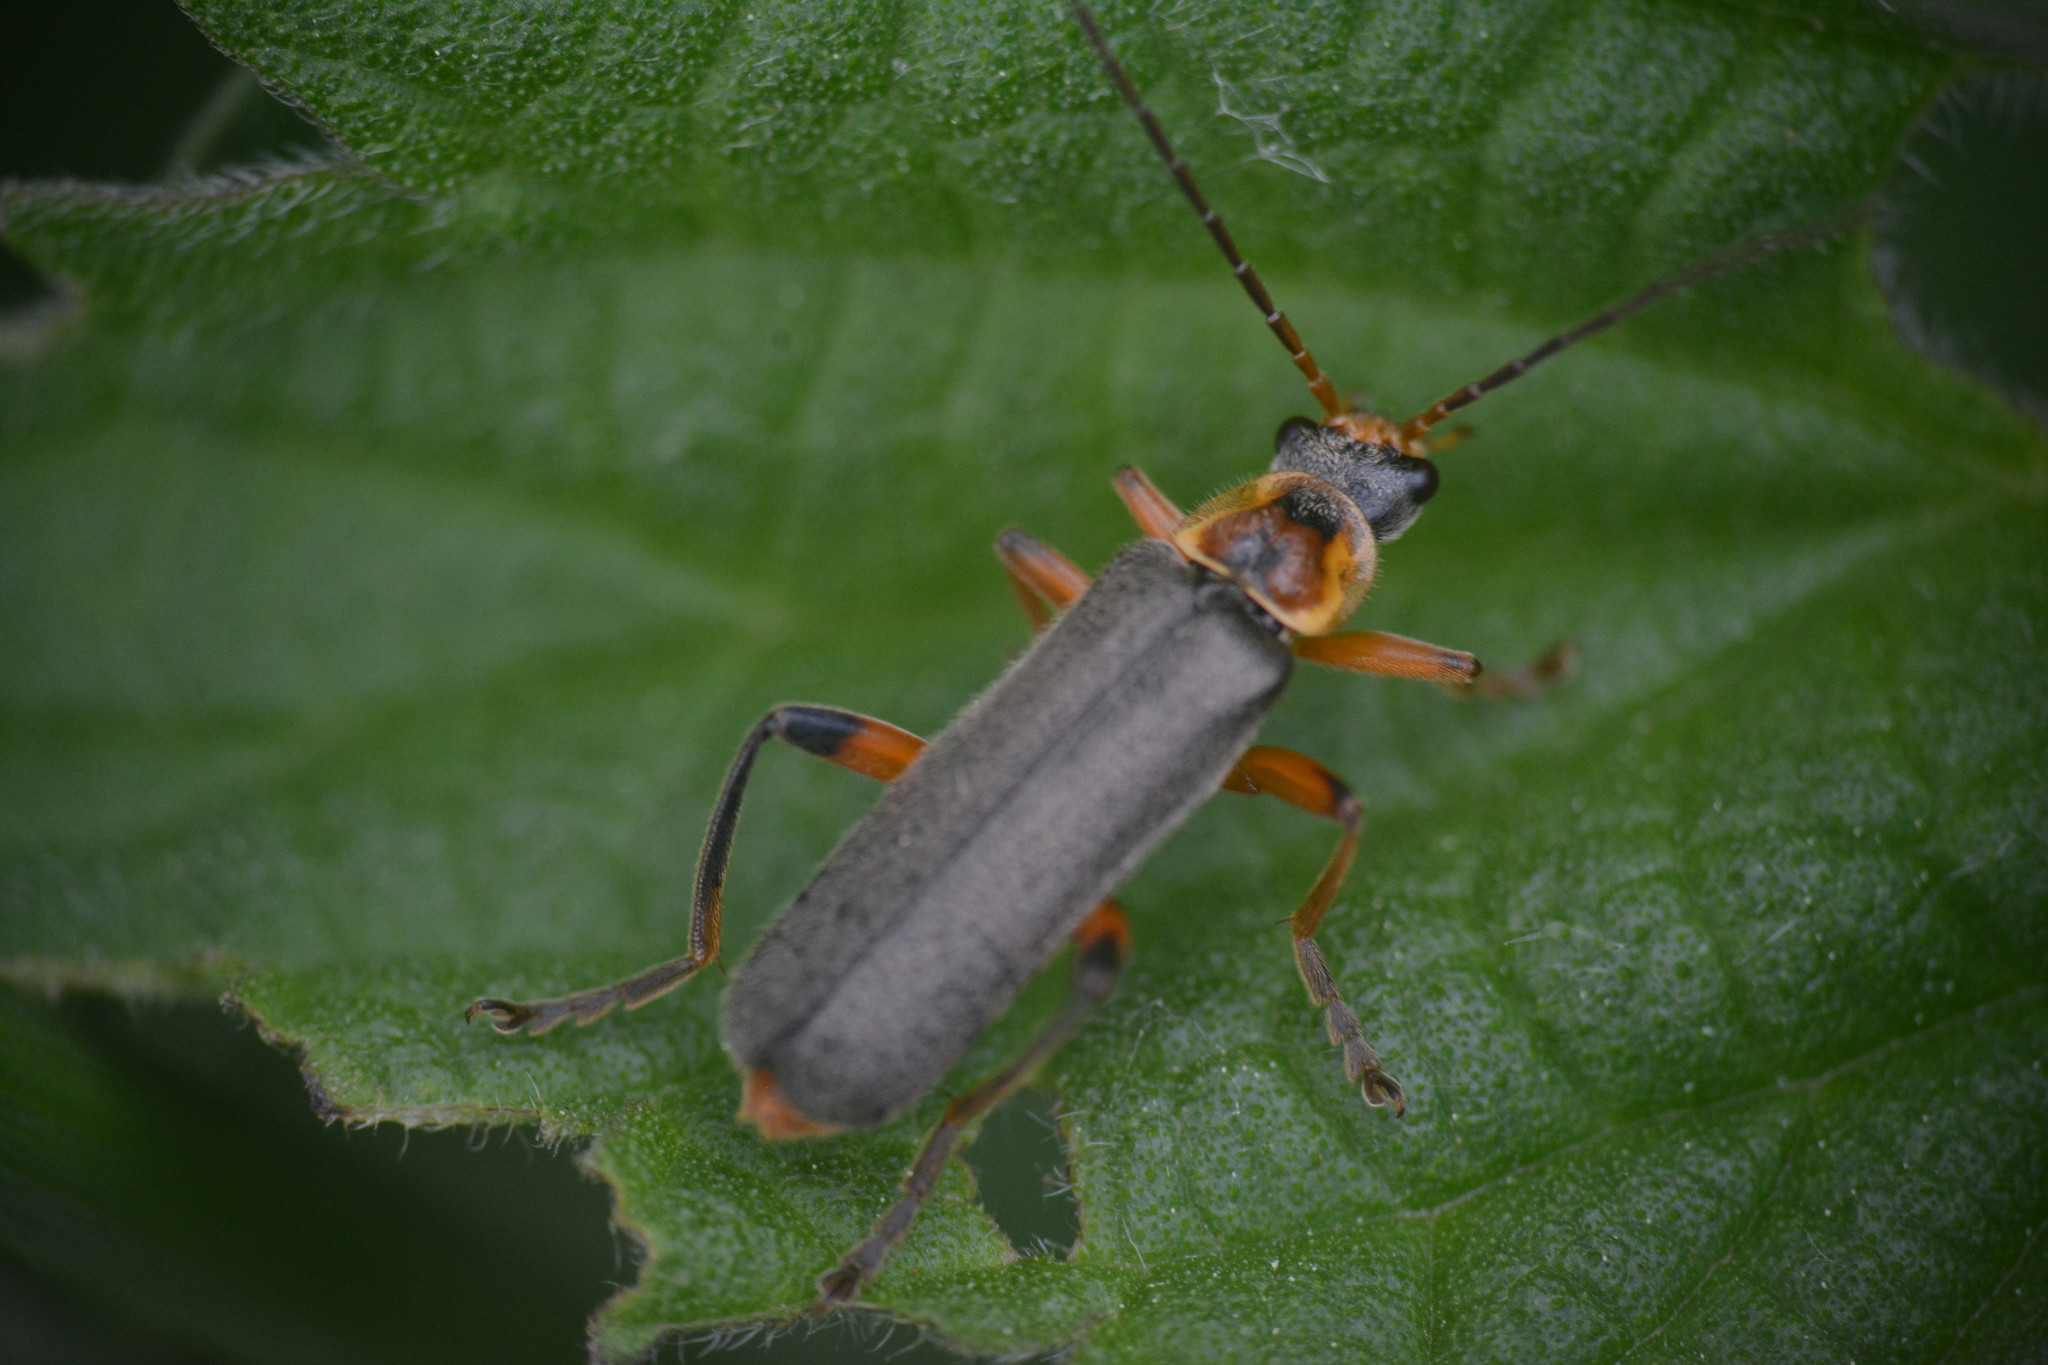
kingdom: Animalia
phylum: Arthropoda
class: Insecta
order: Coleoptera
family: Cantharidae
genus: Cantharis
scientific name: Cantharis nigricans
